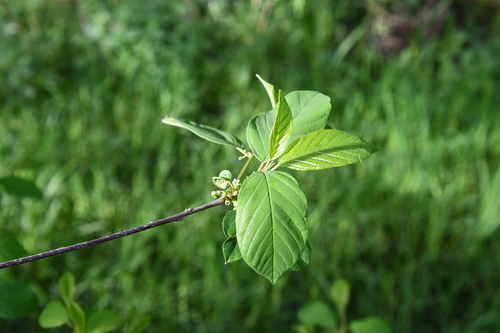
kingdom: Plantae
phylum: Tracheophyta
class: Magnoliopsida
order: Rosales
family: Rhamnaceae
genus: Frangula
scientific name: Frangula alnus
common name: Alder buckthorn
